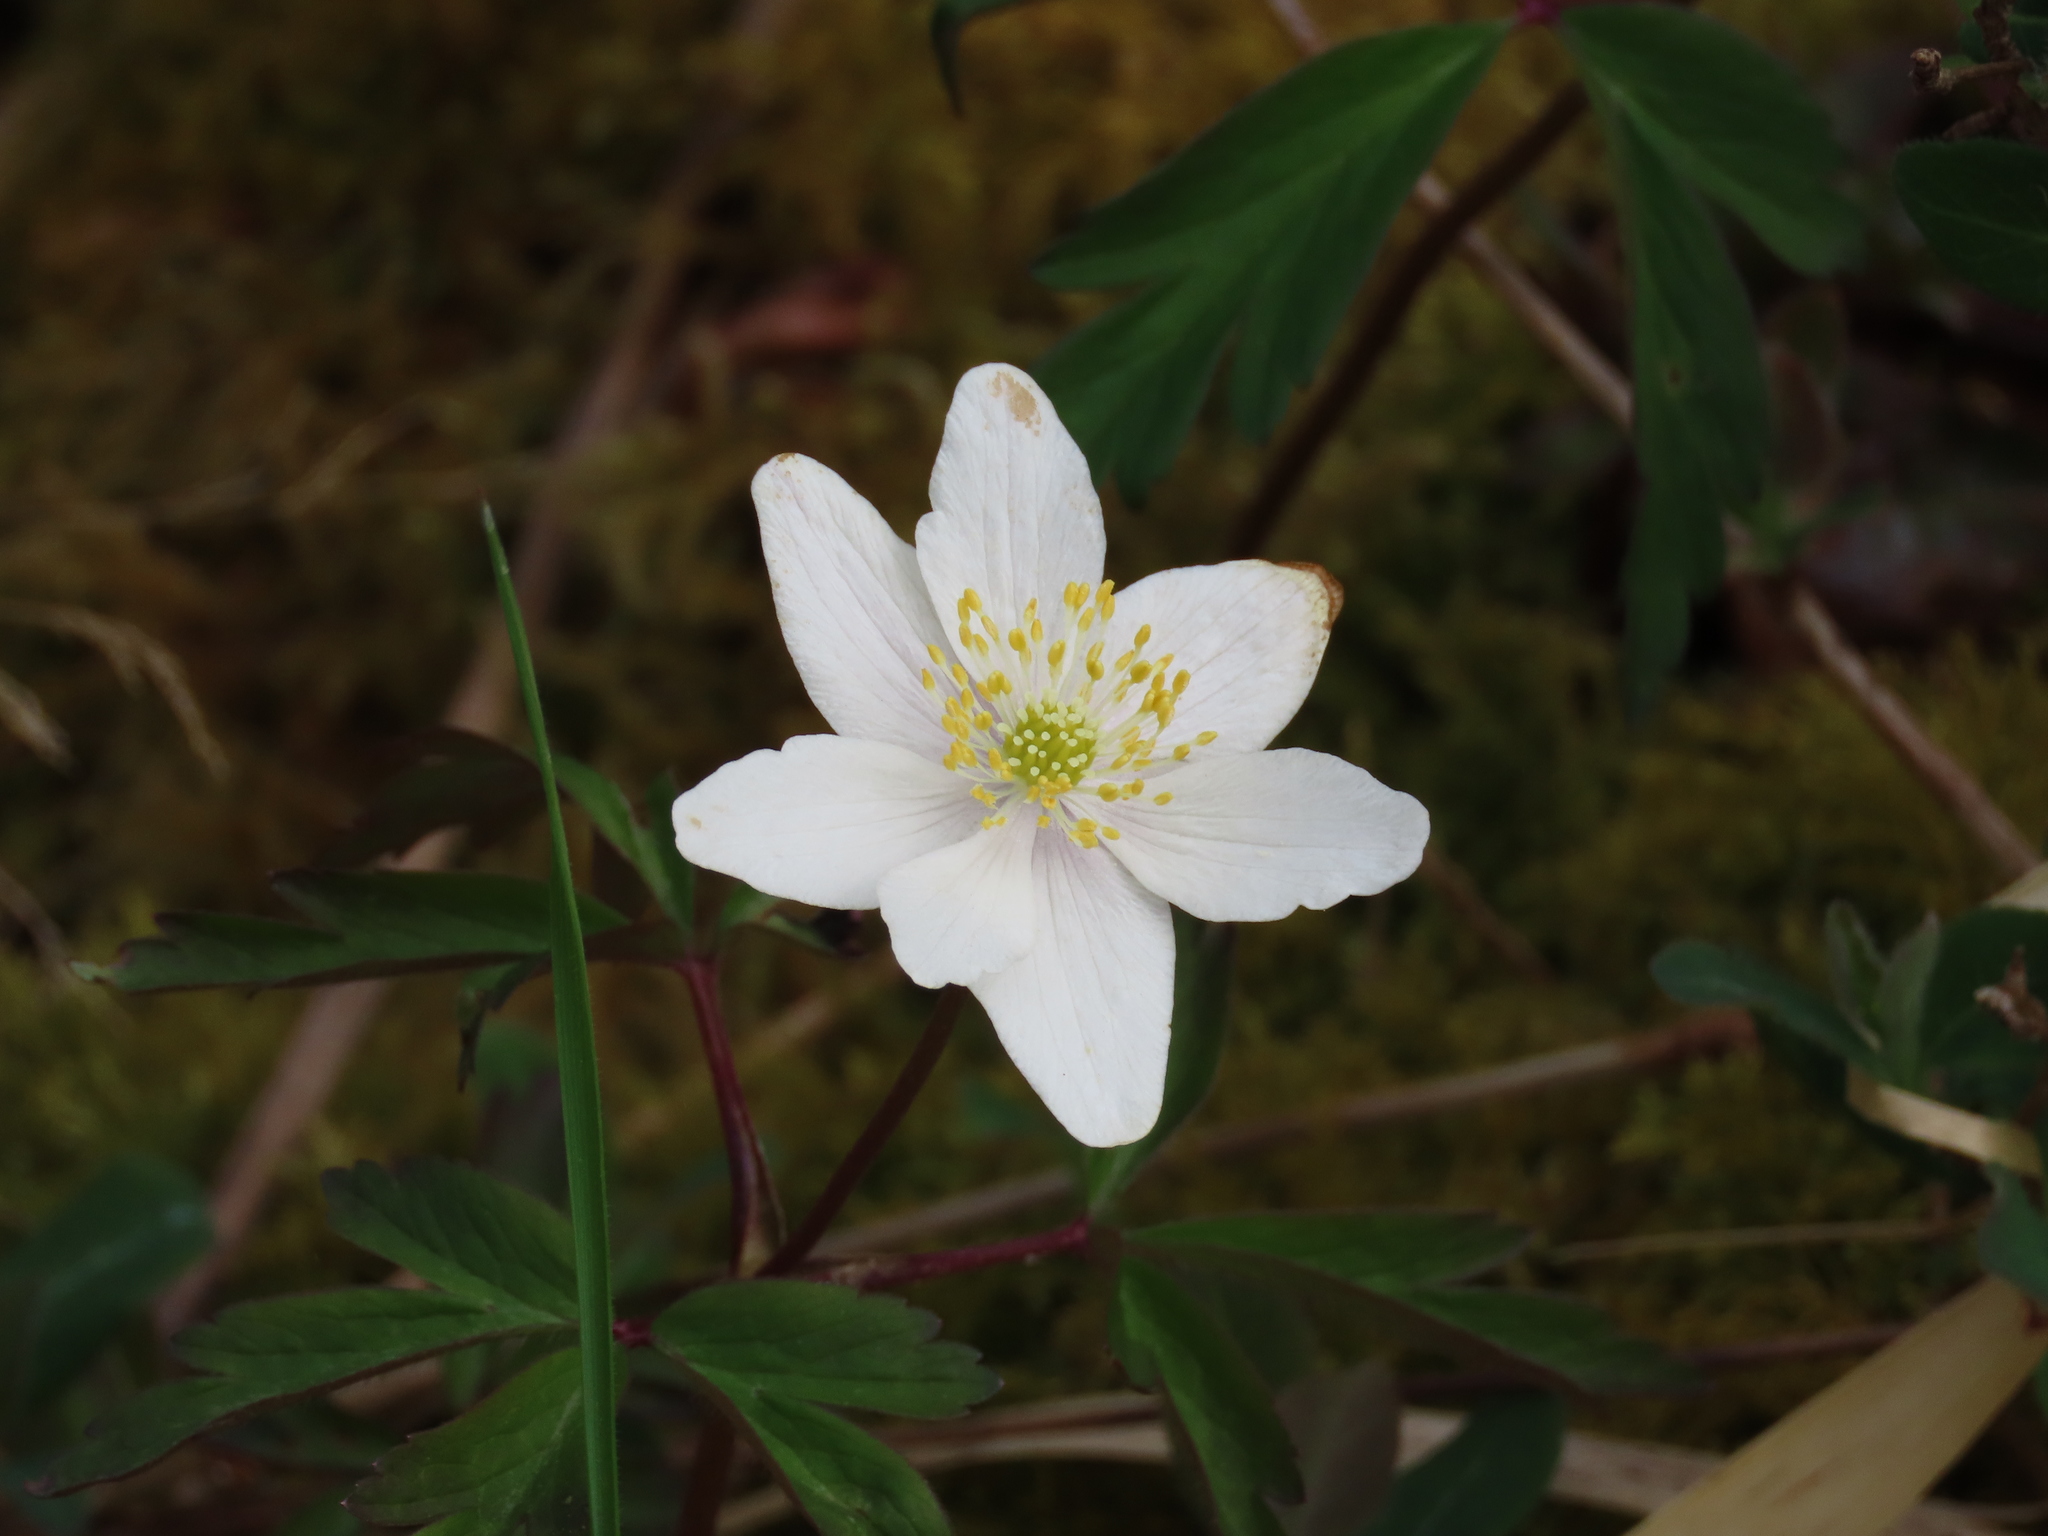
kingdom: Plantae
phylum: Tracheophyta
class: Magnoliopsida
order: Ranunculales
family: Ranunculaceae
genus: Anemone
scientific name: Anemone nemorosa
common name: Wood anemone
